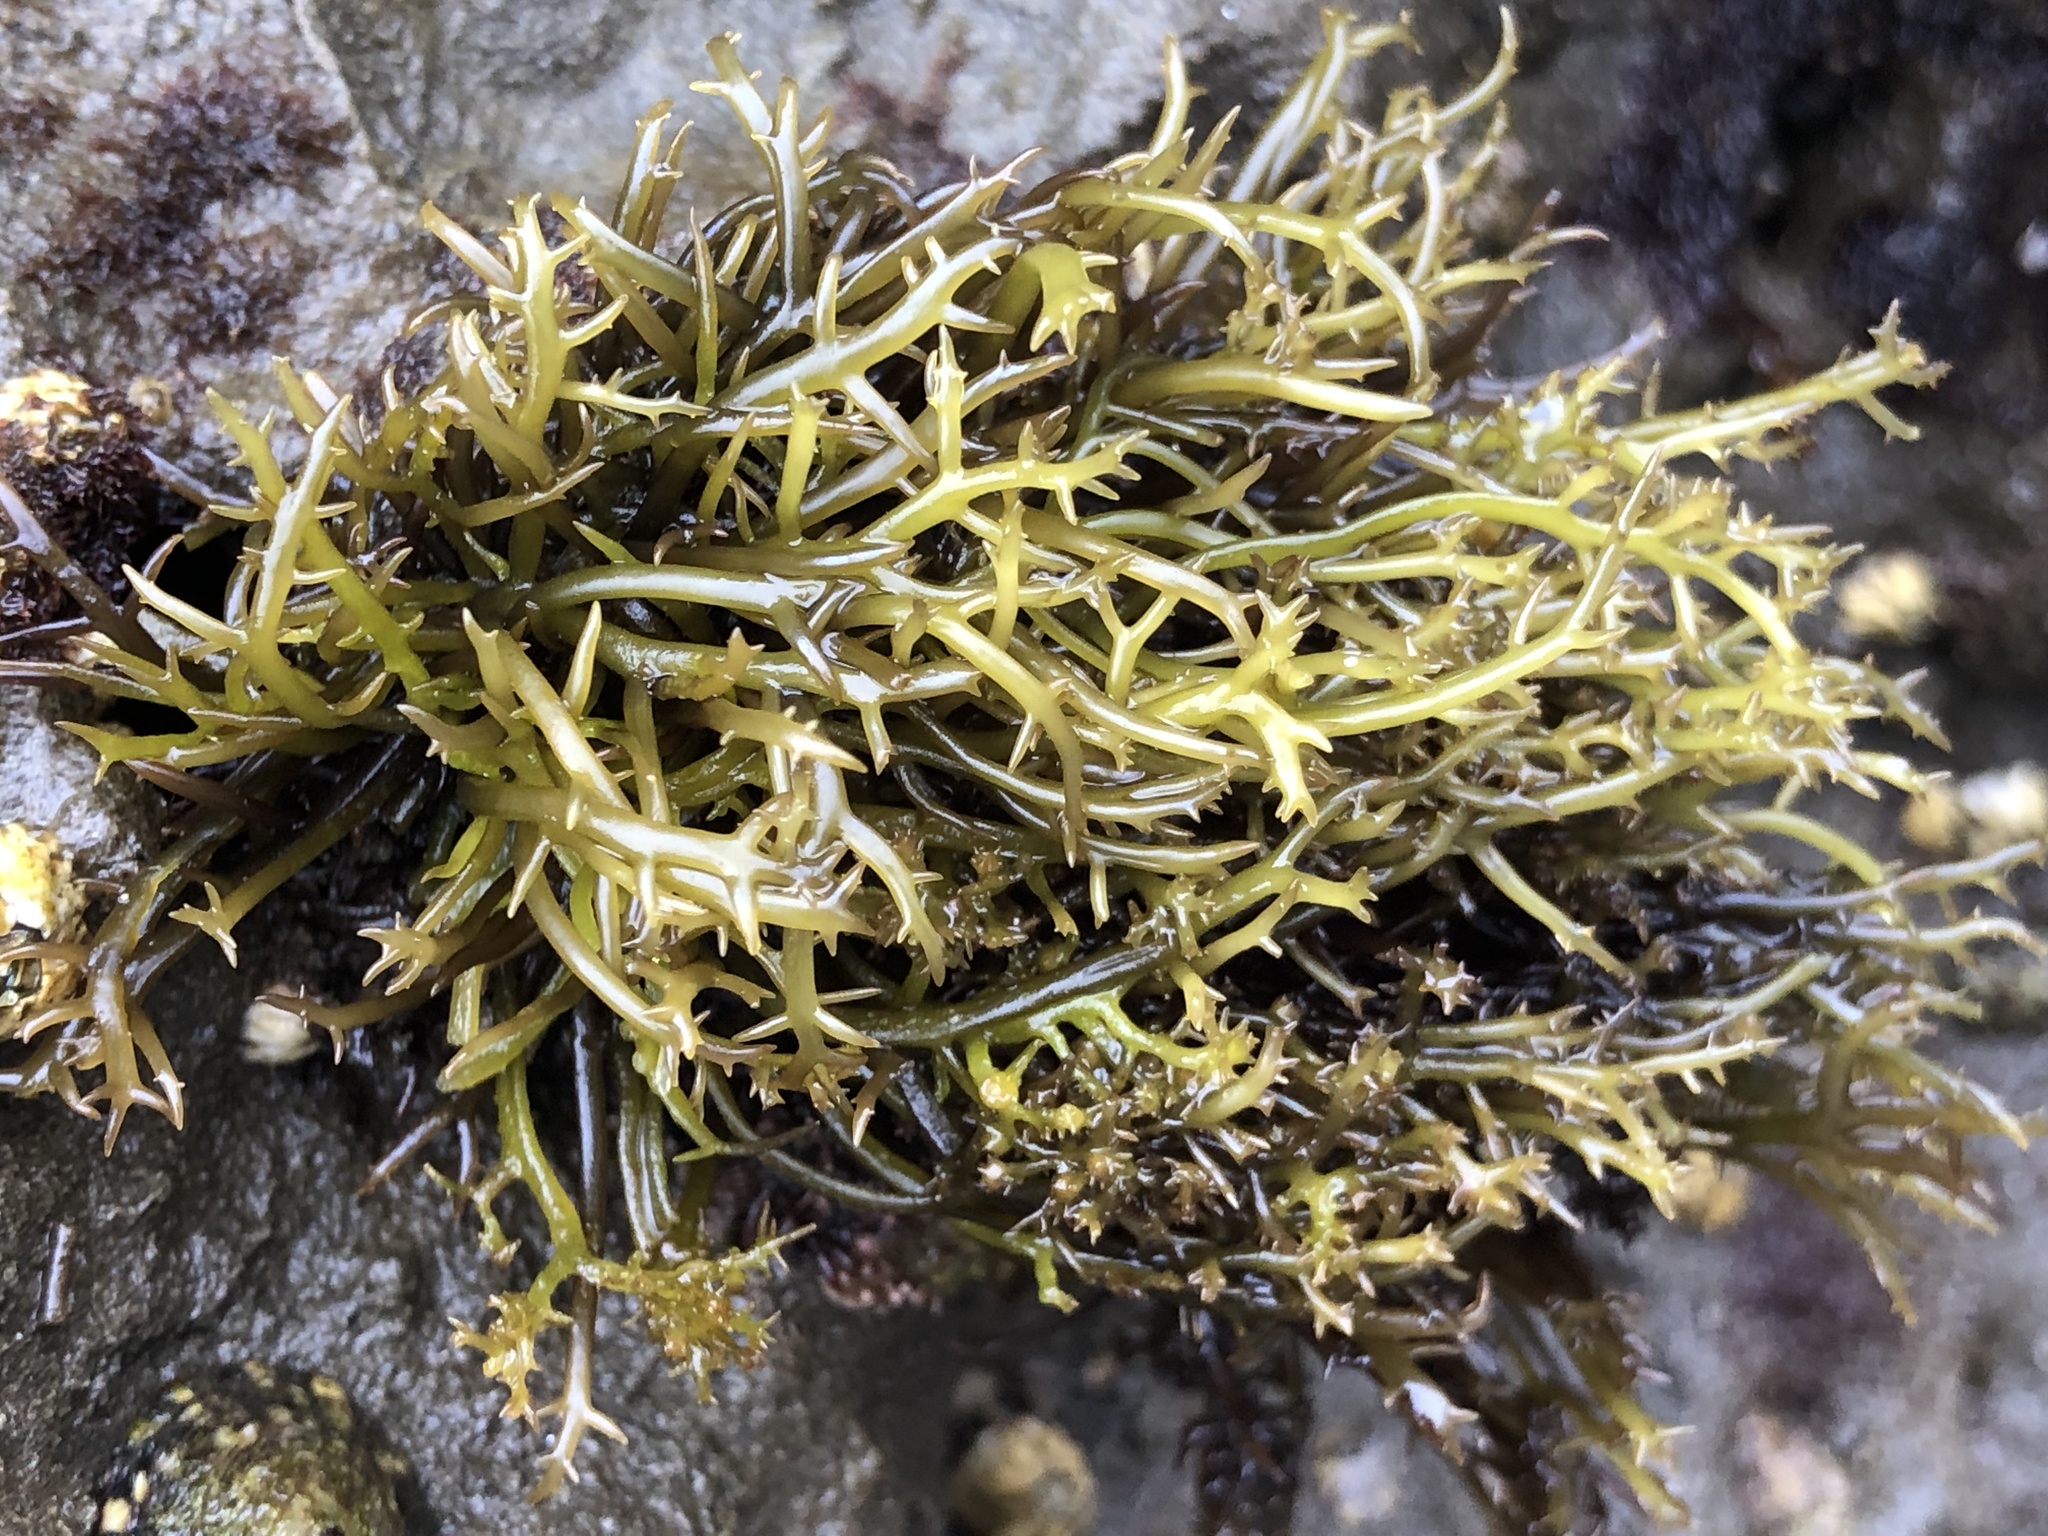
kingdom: Plantae
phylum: Rhodophyta
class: Florideophyceae
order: Gigartinales
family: Gigartinaceae
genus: Chondracanthus
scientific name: Chondracanthus canaliculatus
